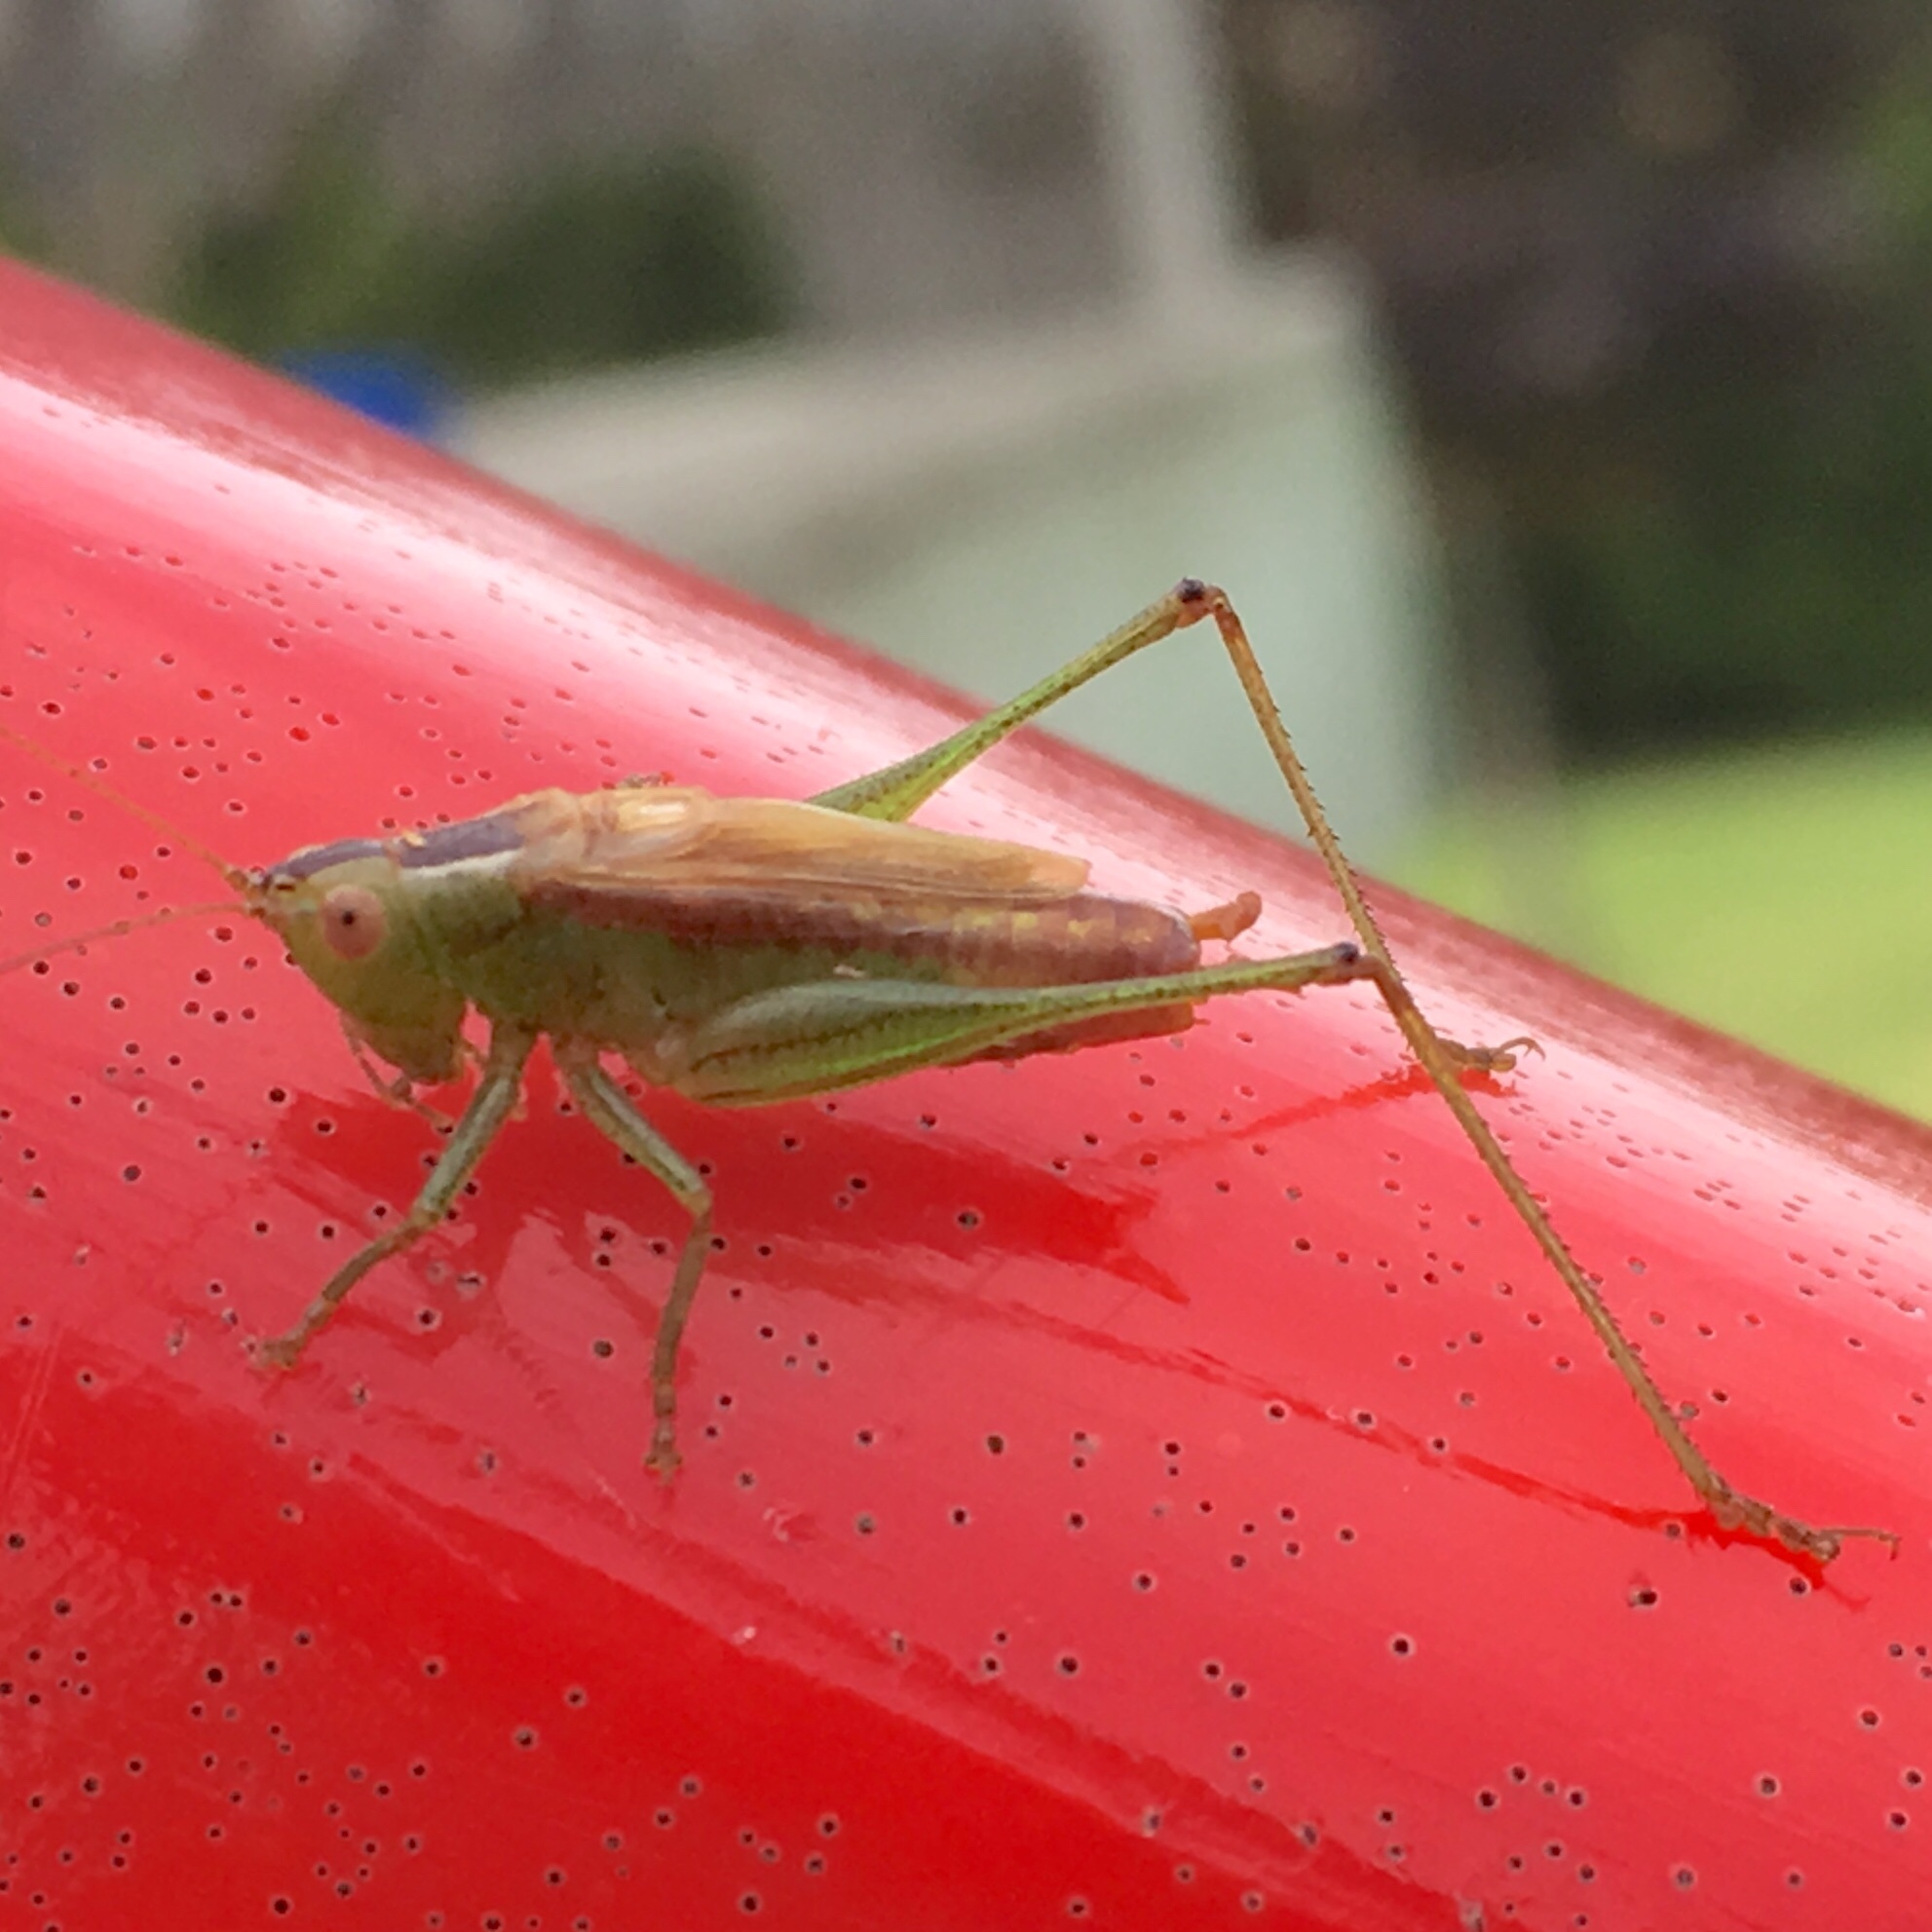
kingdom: Animalia
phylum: Arthropoda
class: Insecta
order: Orthoptera
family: Tettigoniidae
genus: Conocephalus
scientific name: Conocephalus brevipennis
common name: Short-winged meadow katydid
